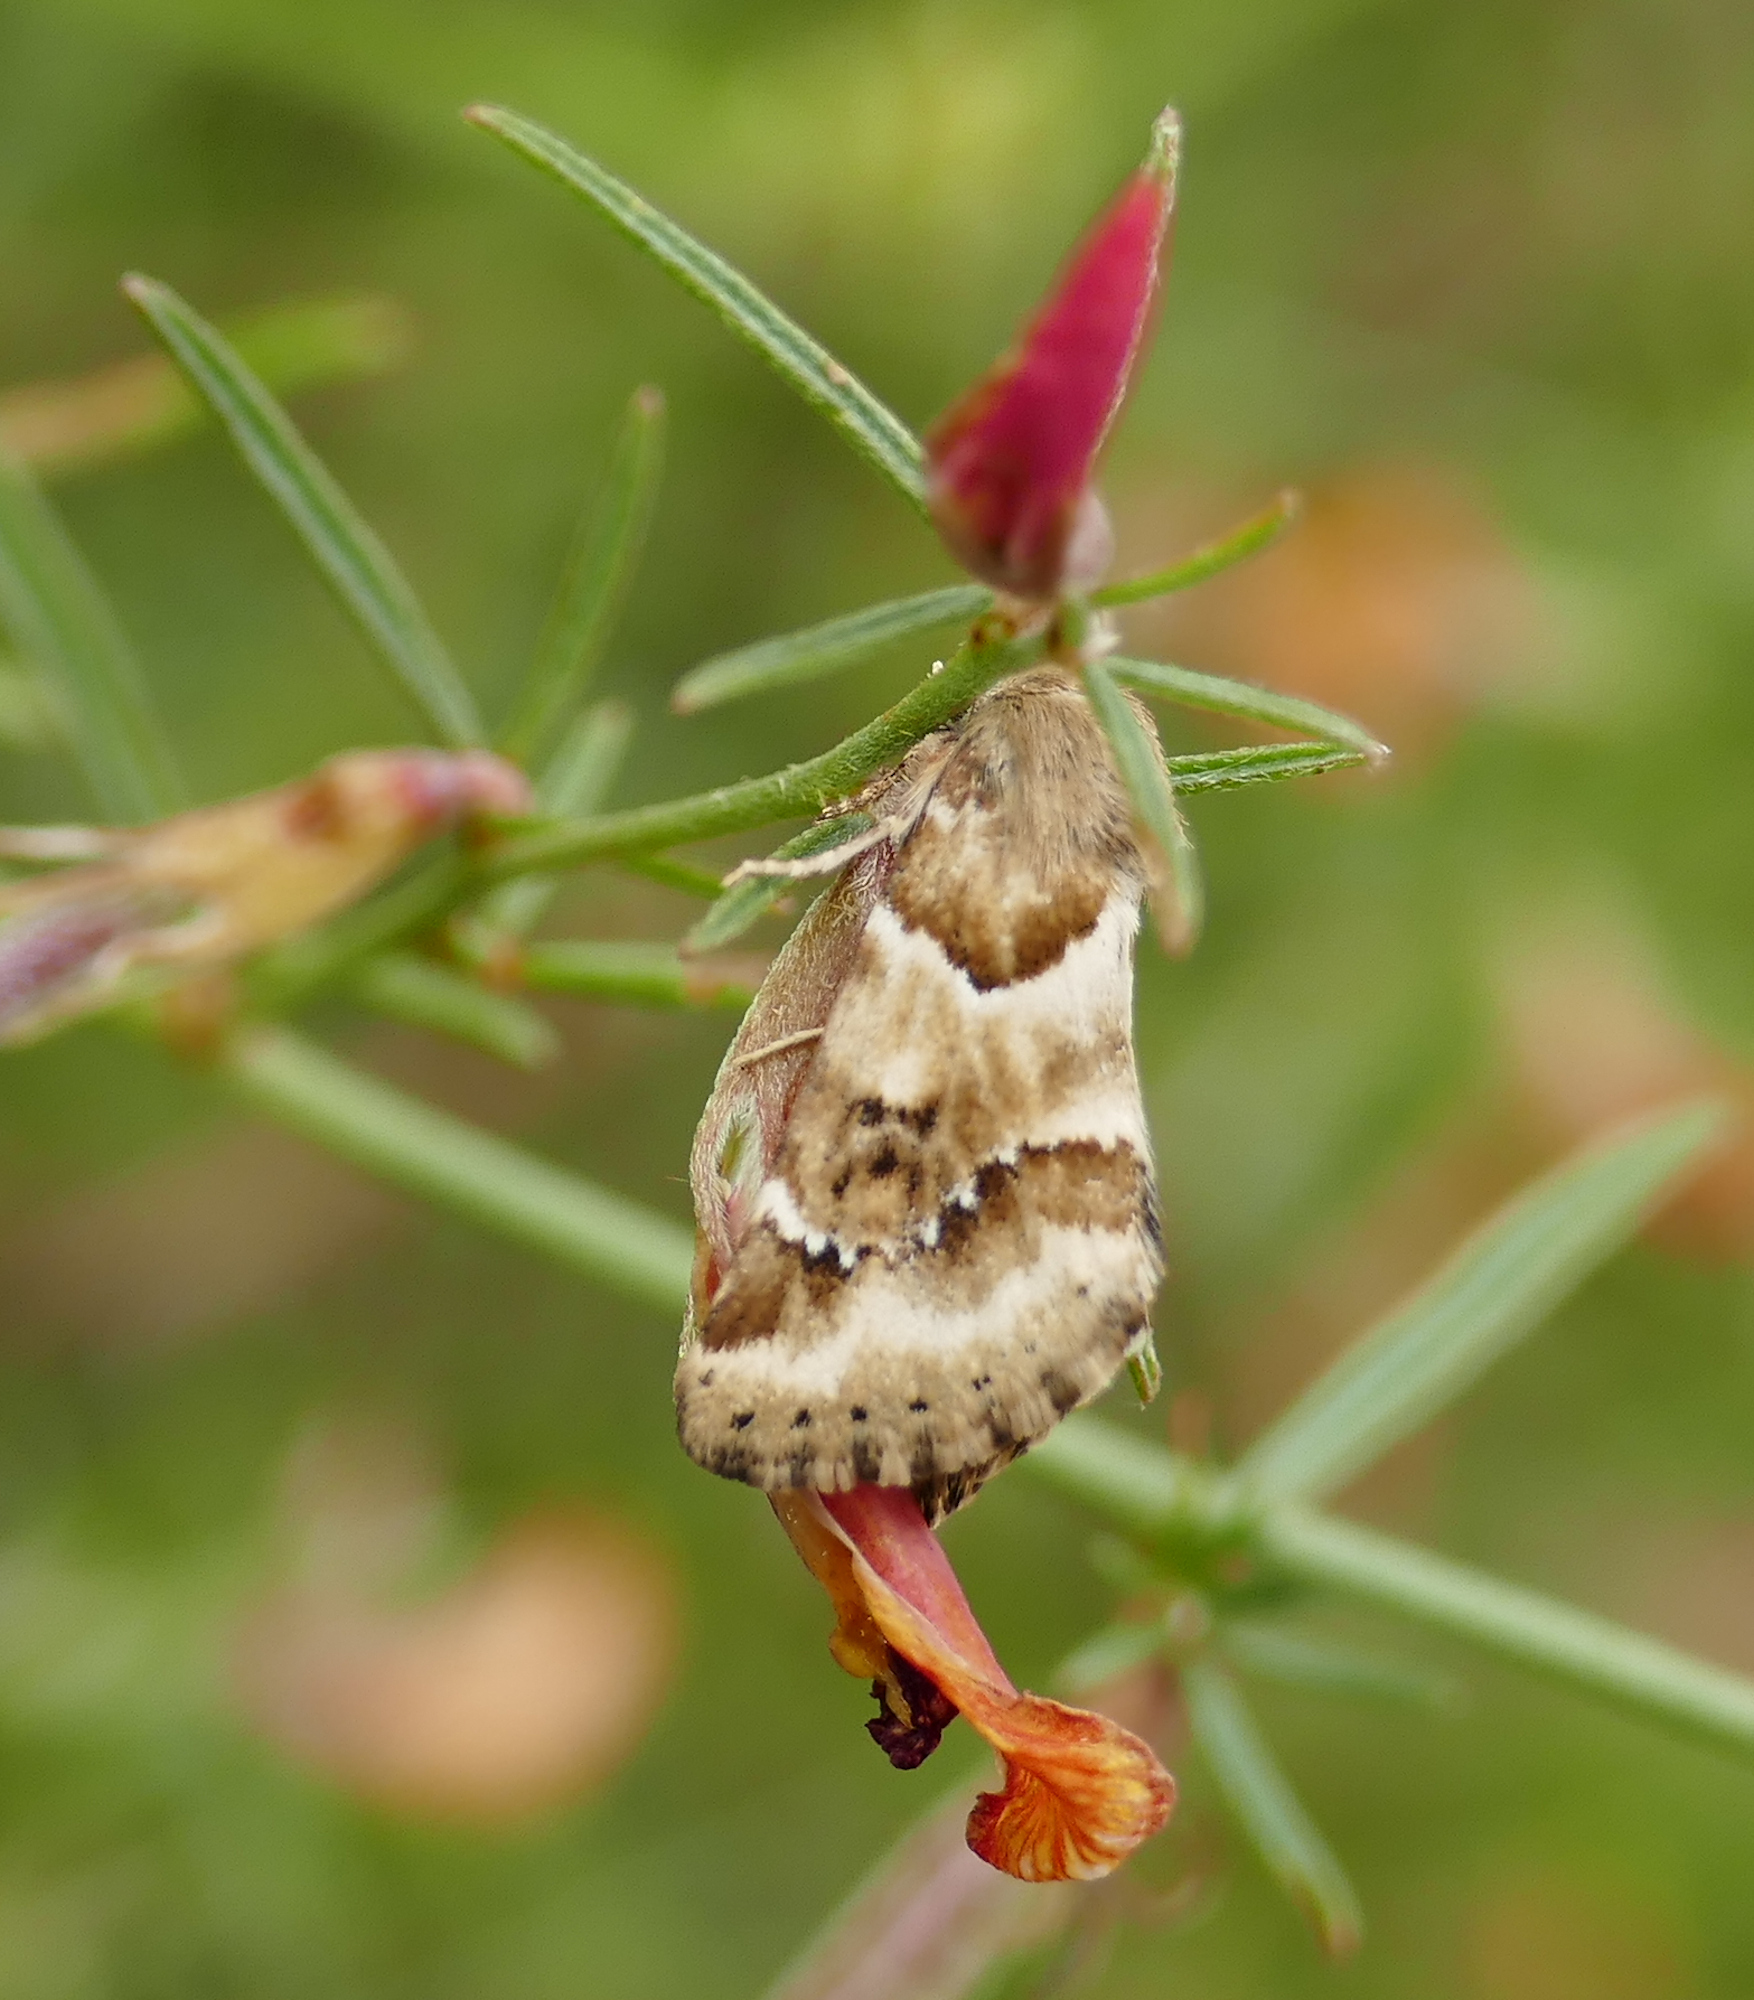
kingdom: Animalia
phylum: Arthropoda
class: Insecta
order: Lepidoptera
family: Noctuidae
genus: Schinia
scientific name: Schinia walsinghami
